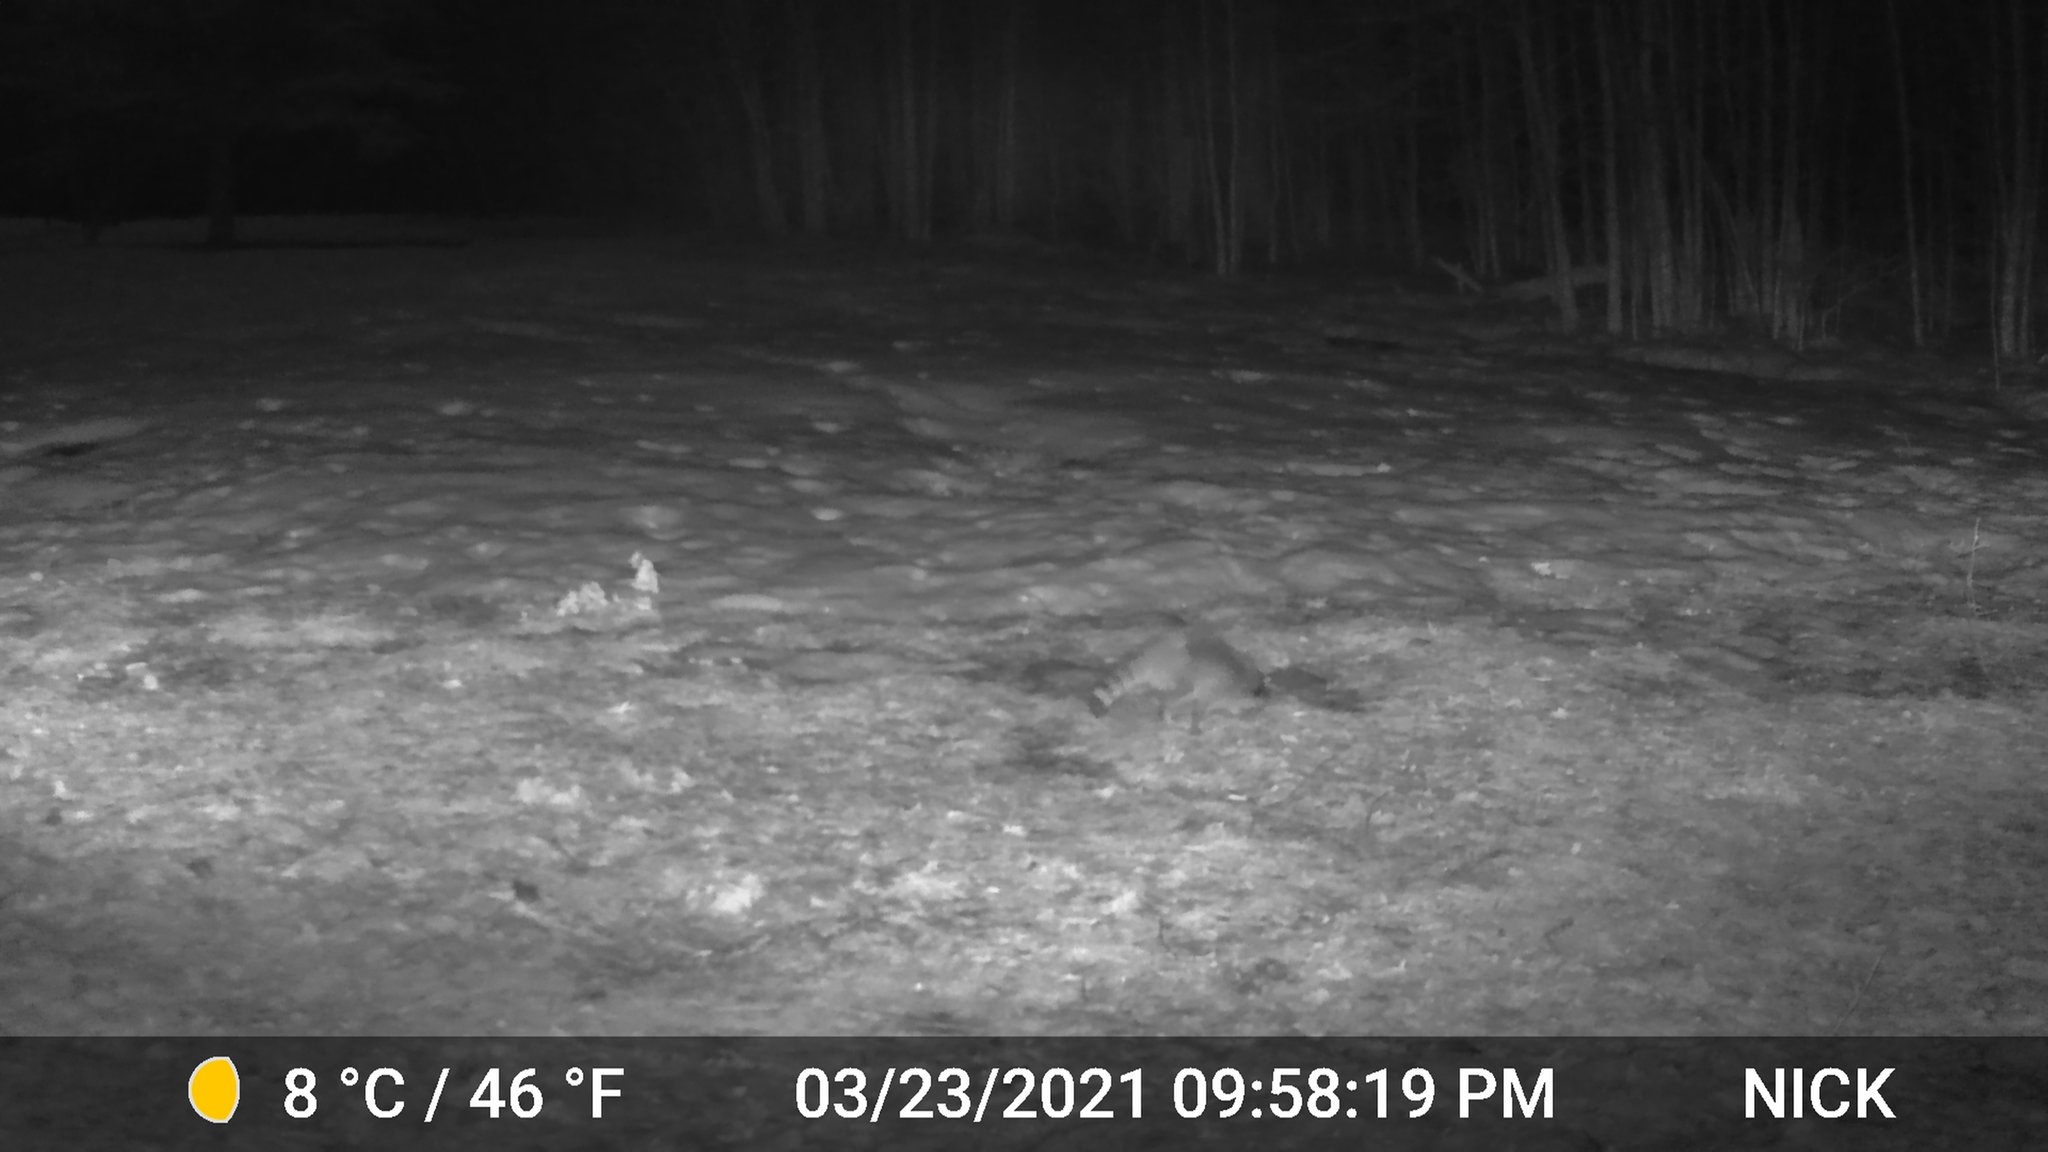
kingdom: Animalia
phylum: Chordata
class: Mammalia
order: Carnivora
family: Procyonidae
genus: Procyon
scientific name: Procyon lotor
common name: Raccoon
